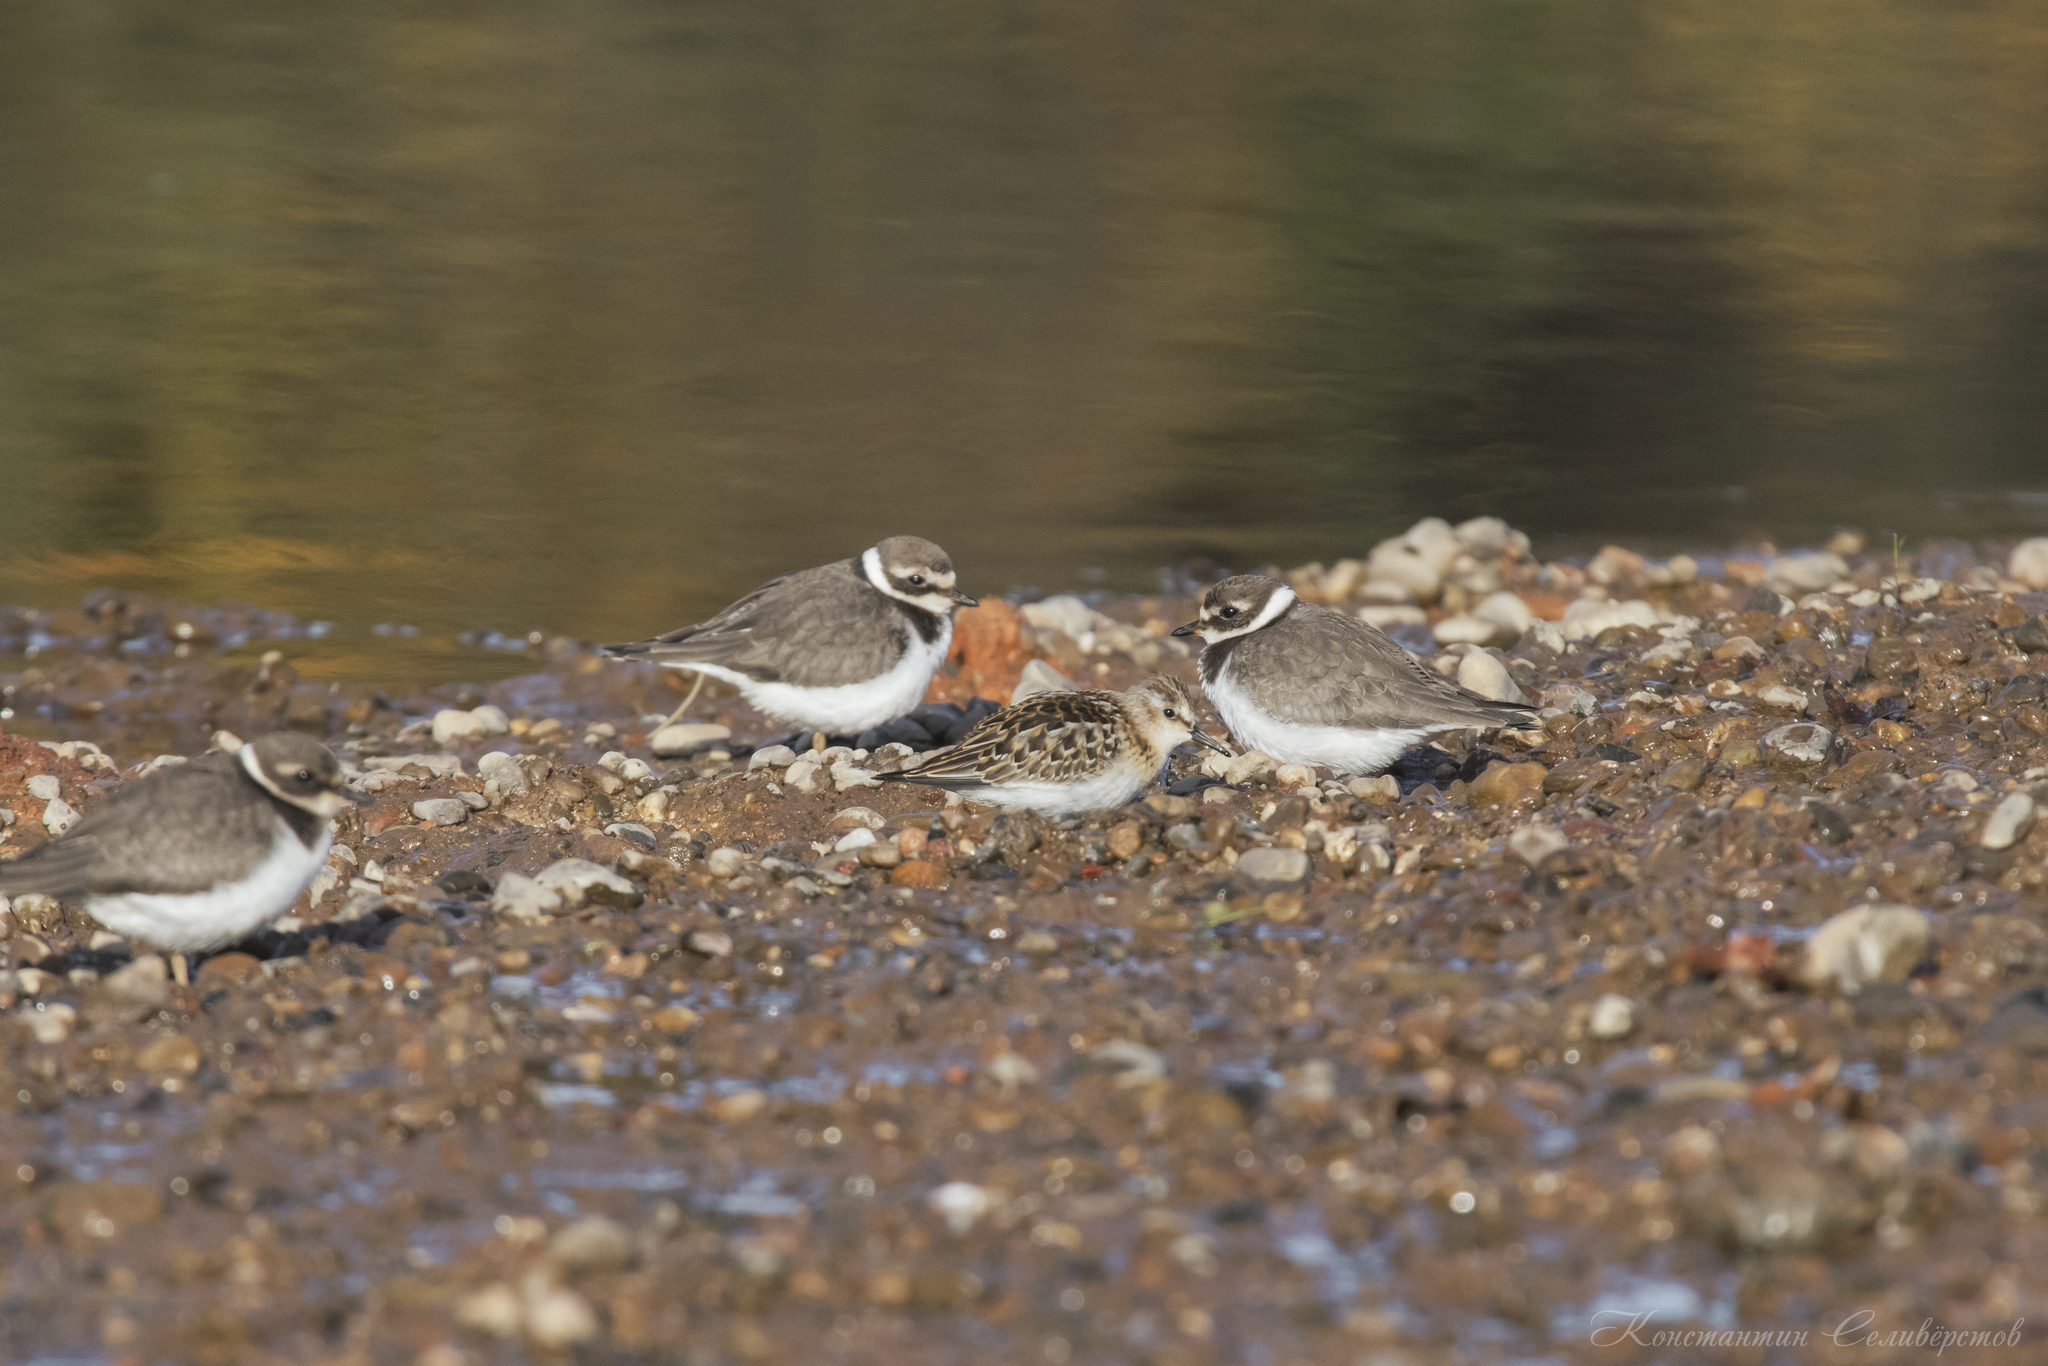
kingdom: Animalia
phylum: Chordata
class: Aves
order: Charadriiformes
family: Scolopacidae
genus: Calidris
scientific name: Calidris minuta
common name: Little stint
